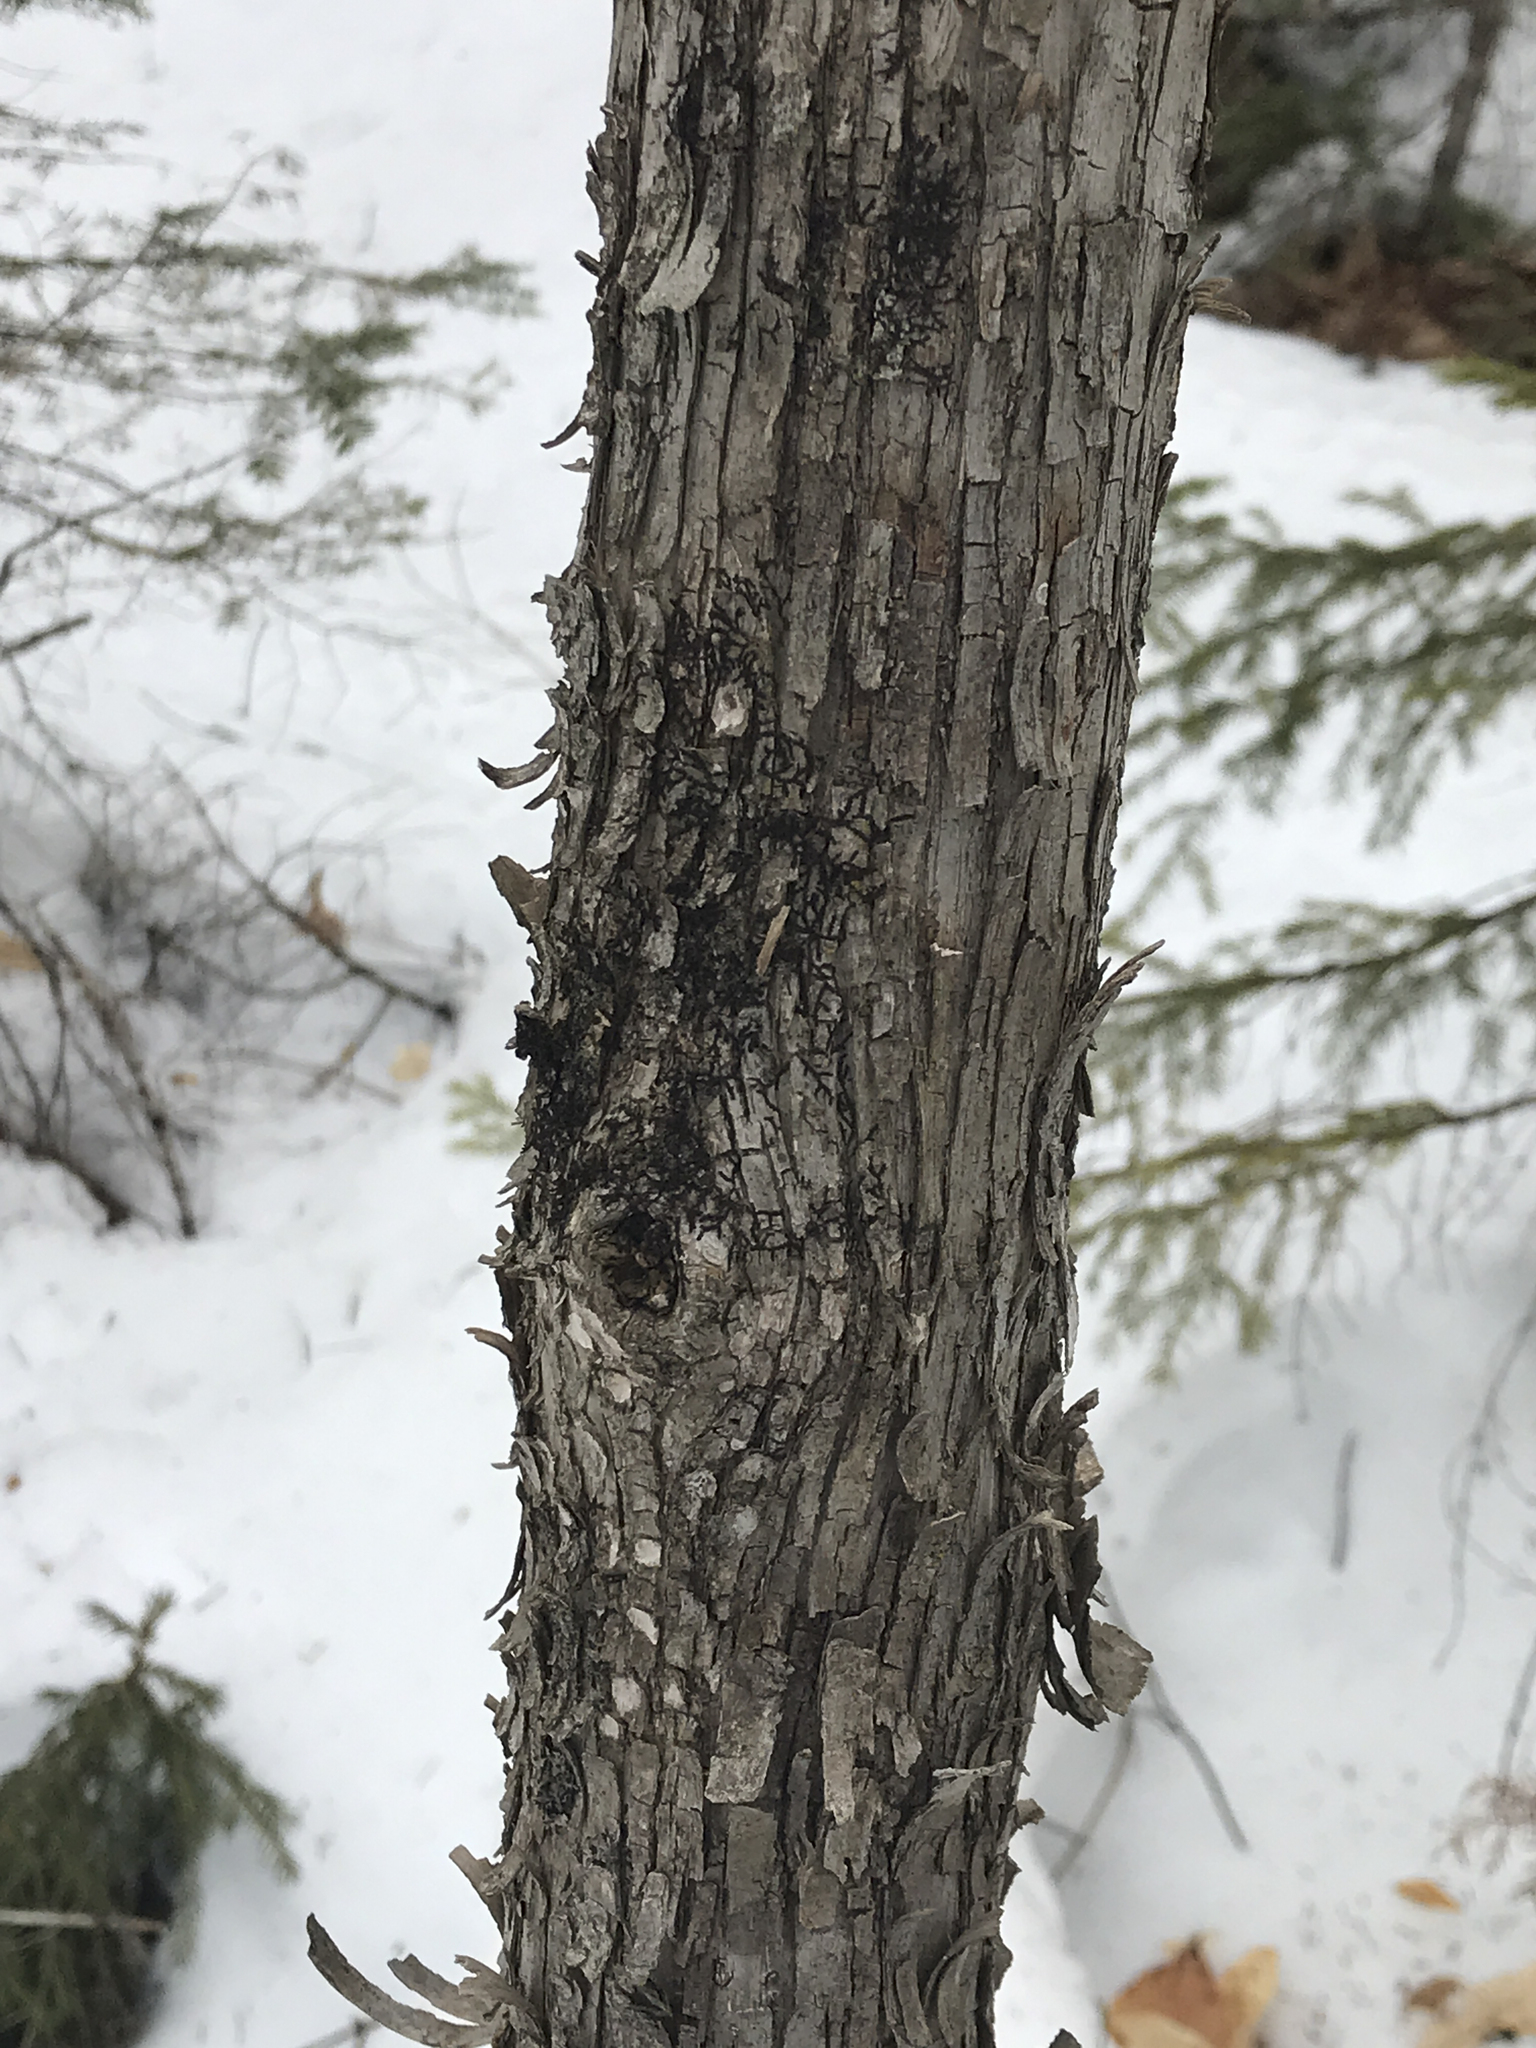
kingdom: Plantae
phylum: Tracheophyta
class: Magnoliopsida
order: Fagales
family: Betulaceae
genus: Ostrya
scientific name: Ostrya virginiana
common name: Ironwood
